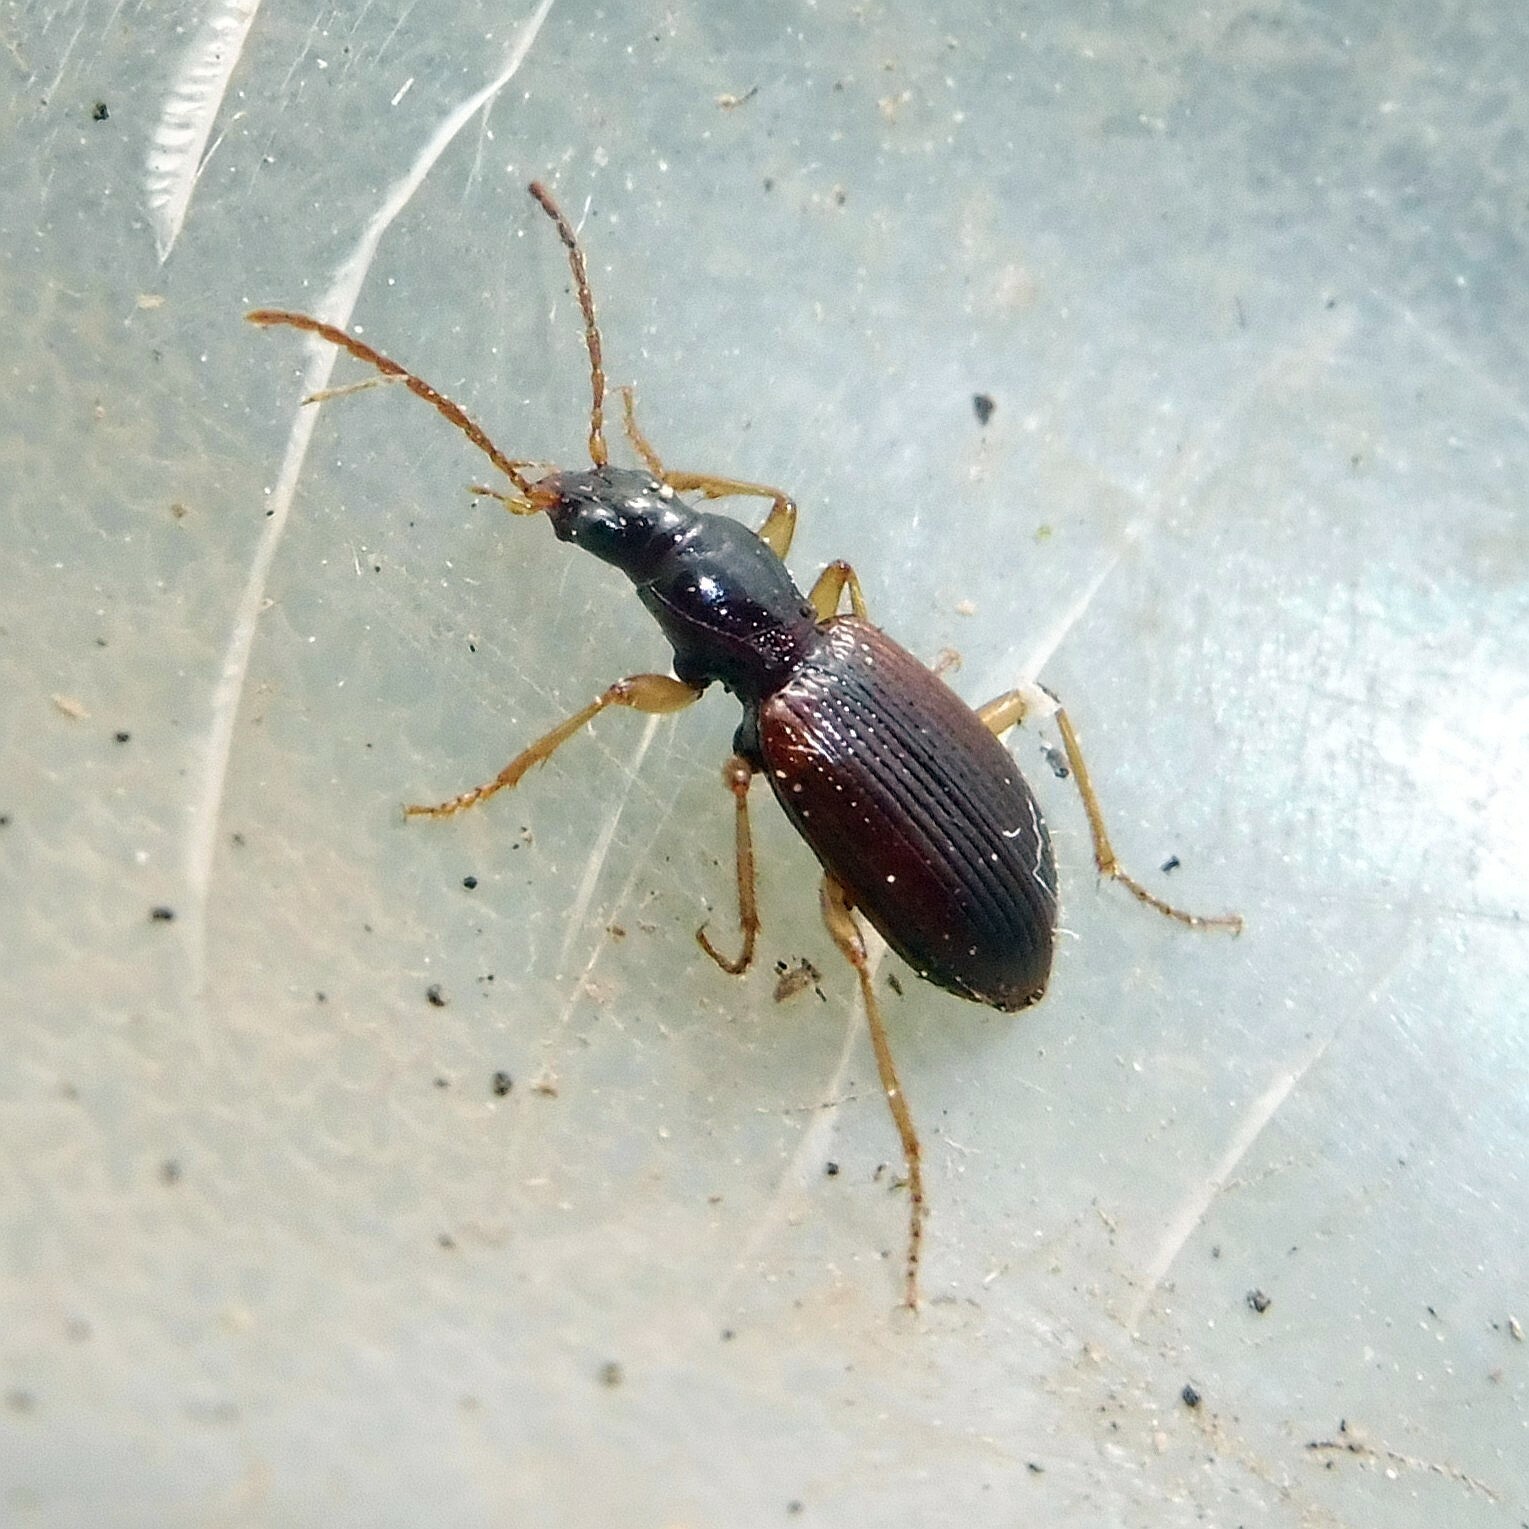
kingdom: Animalia
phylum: Arthropoda
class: Insecta
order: Coleoptera
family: Carabidae
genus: Oxypselaphus
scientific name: Oxypselaphus obscurus
